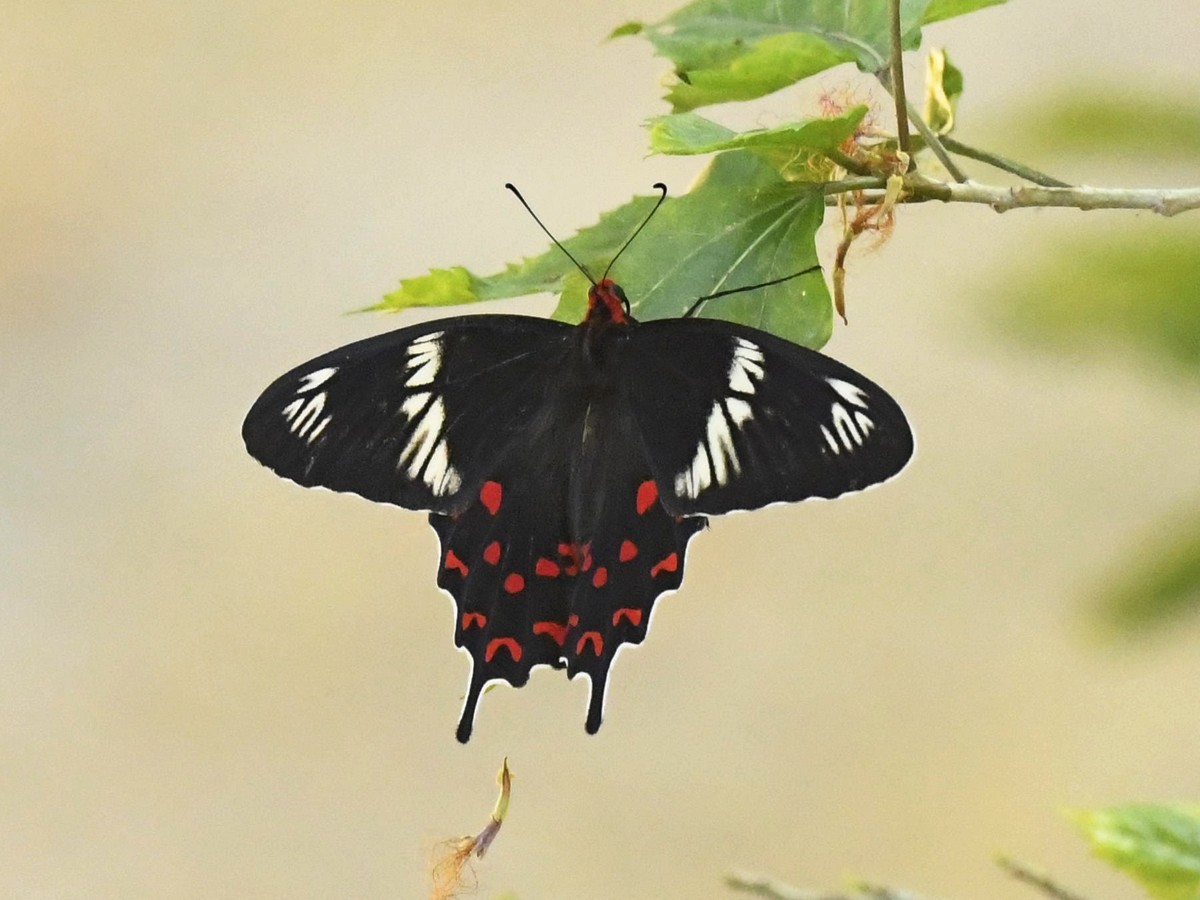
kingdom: Animalia
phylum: Arthropoda
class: Insecta
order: Lepidoptera
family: Papilionidae
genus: Pachliopta
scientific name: Pachliopta hector
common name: Crimson rose
